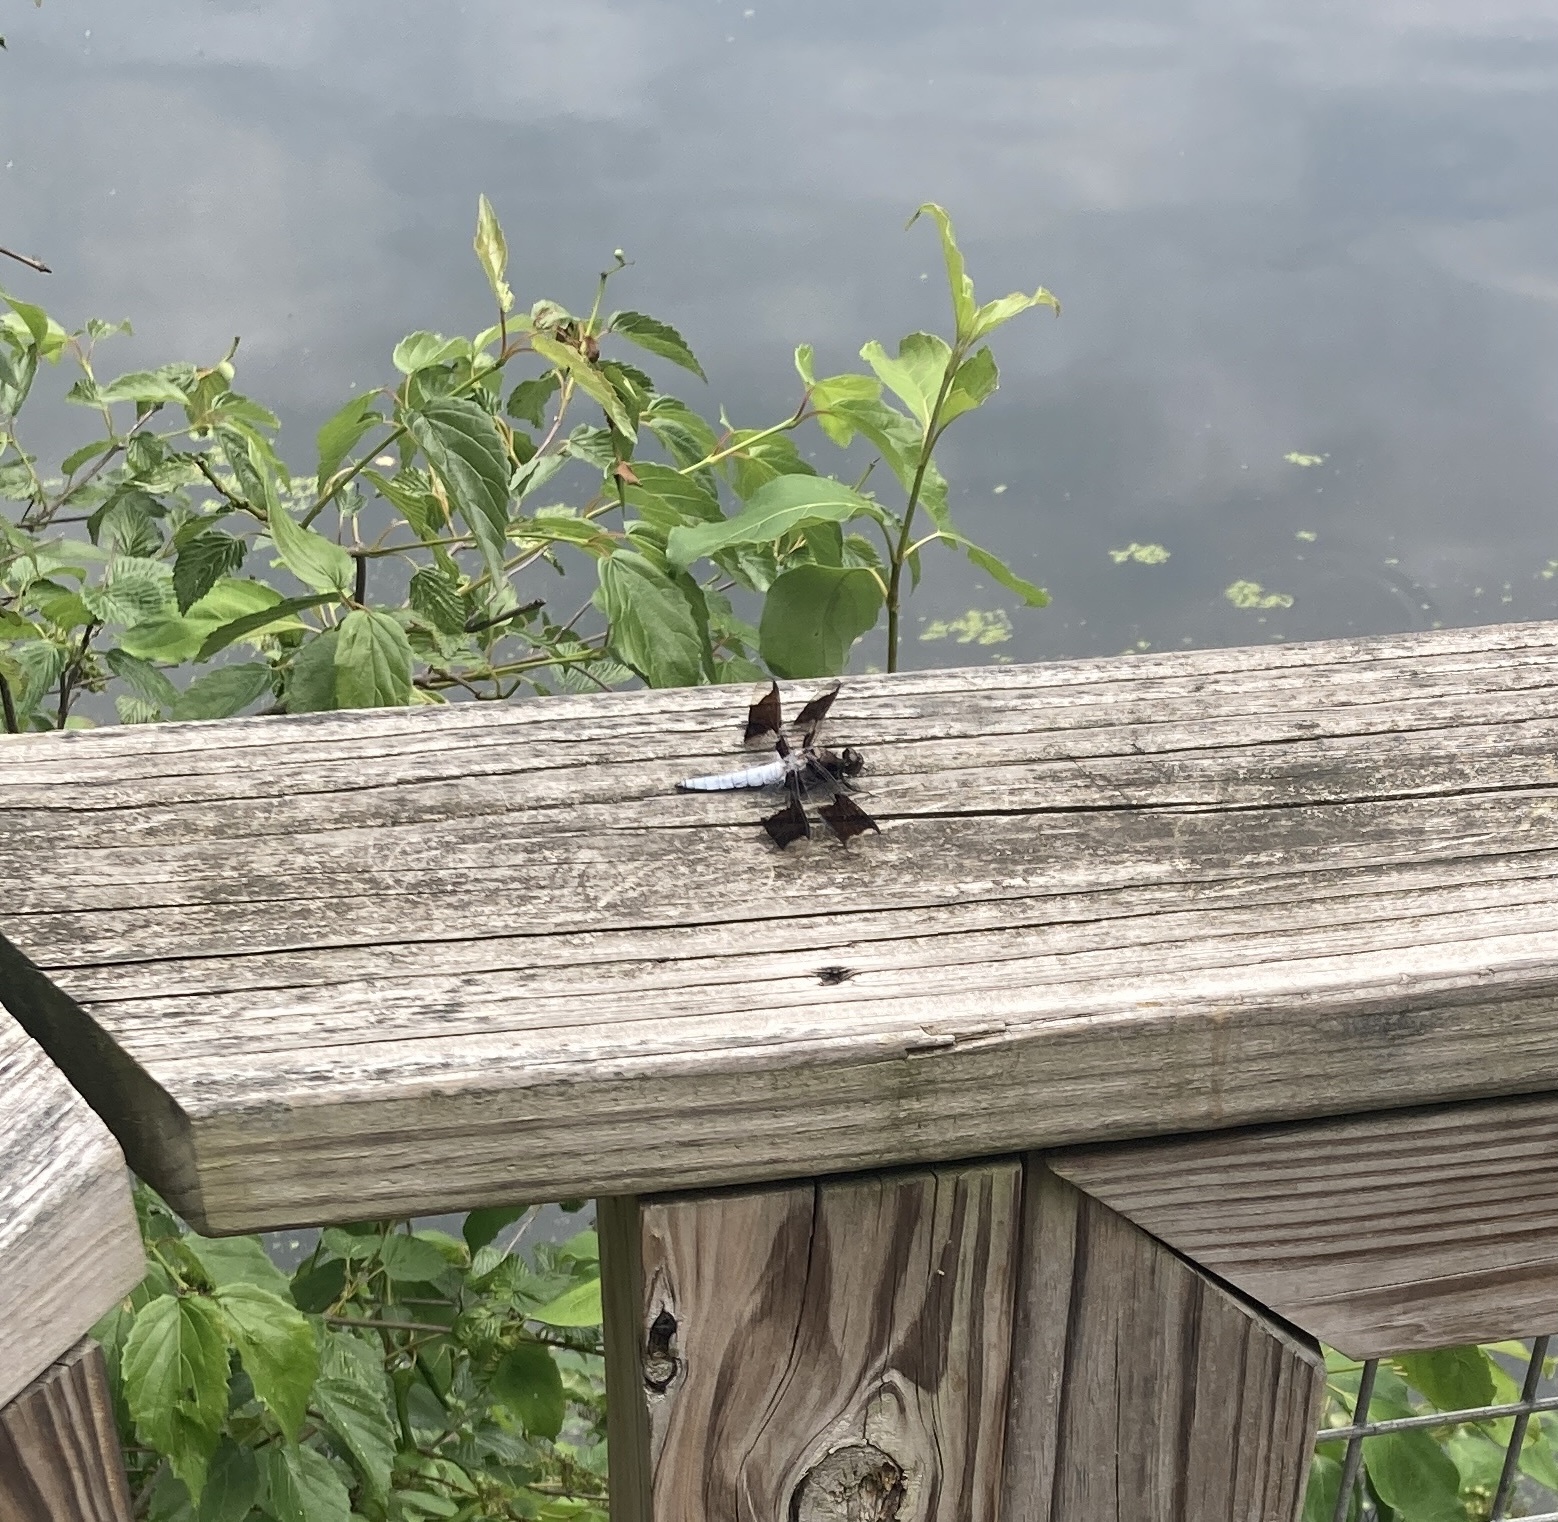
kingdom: Animalia
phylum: Arthropoda
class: Insecta
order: Odonata
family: Libellulidae
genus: Plathemis
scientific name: Plathemis lydia
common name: Common whitetail
